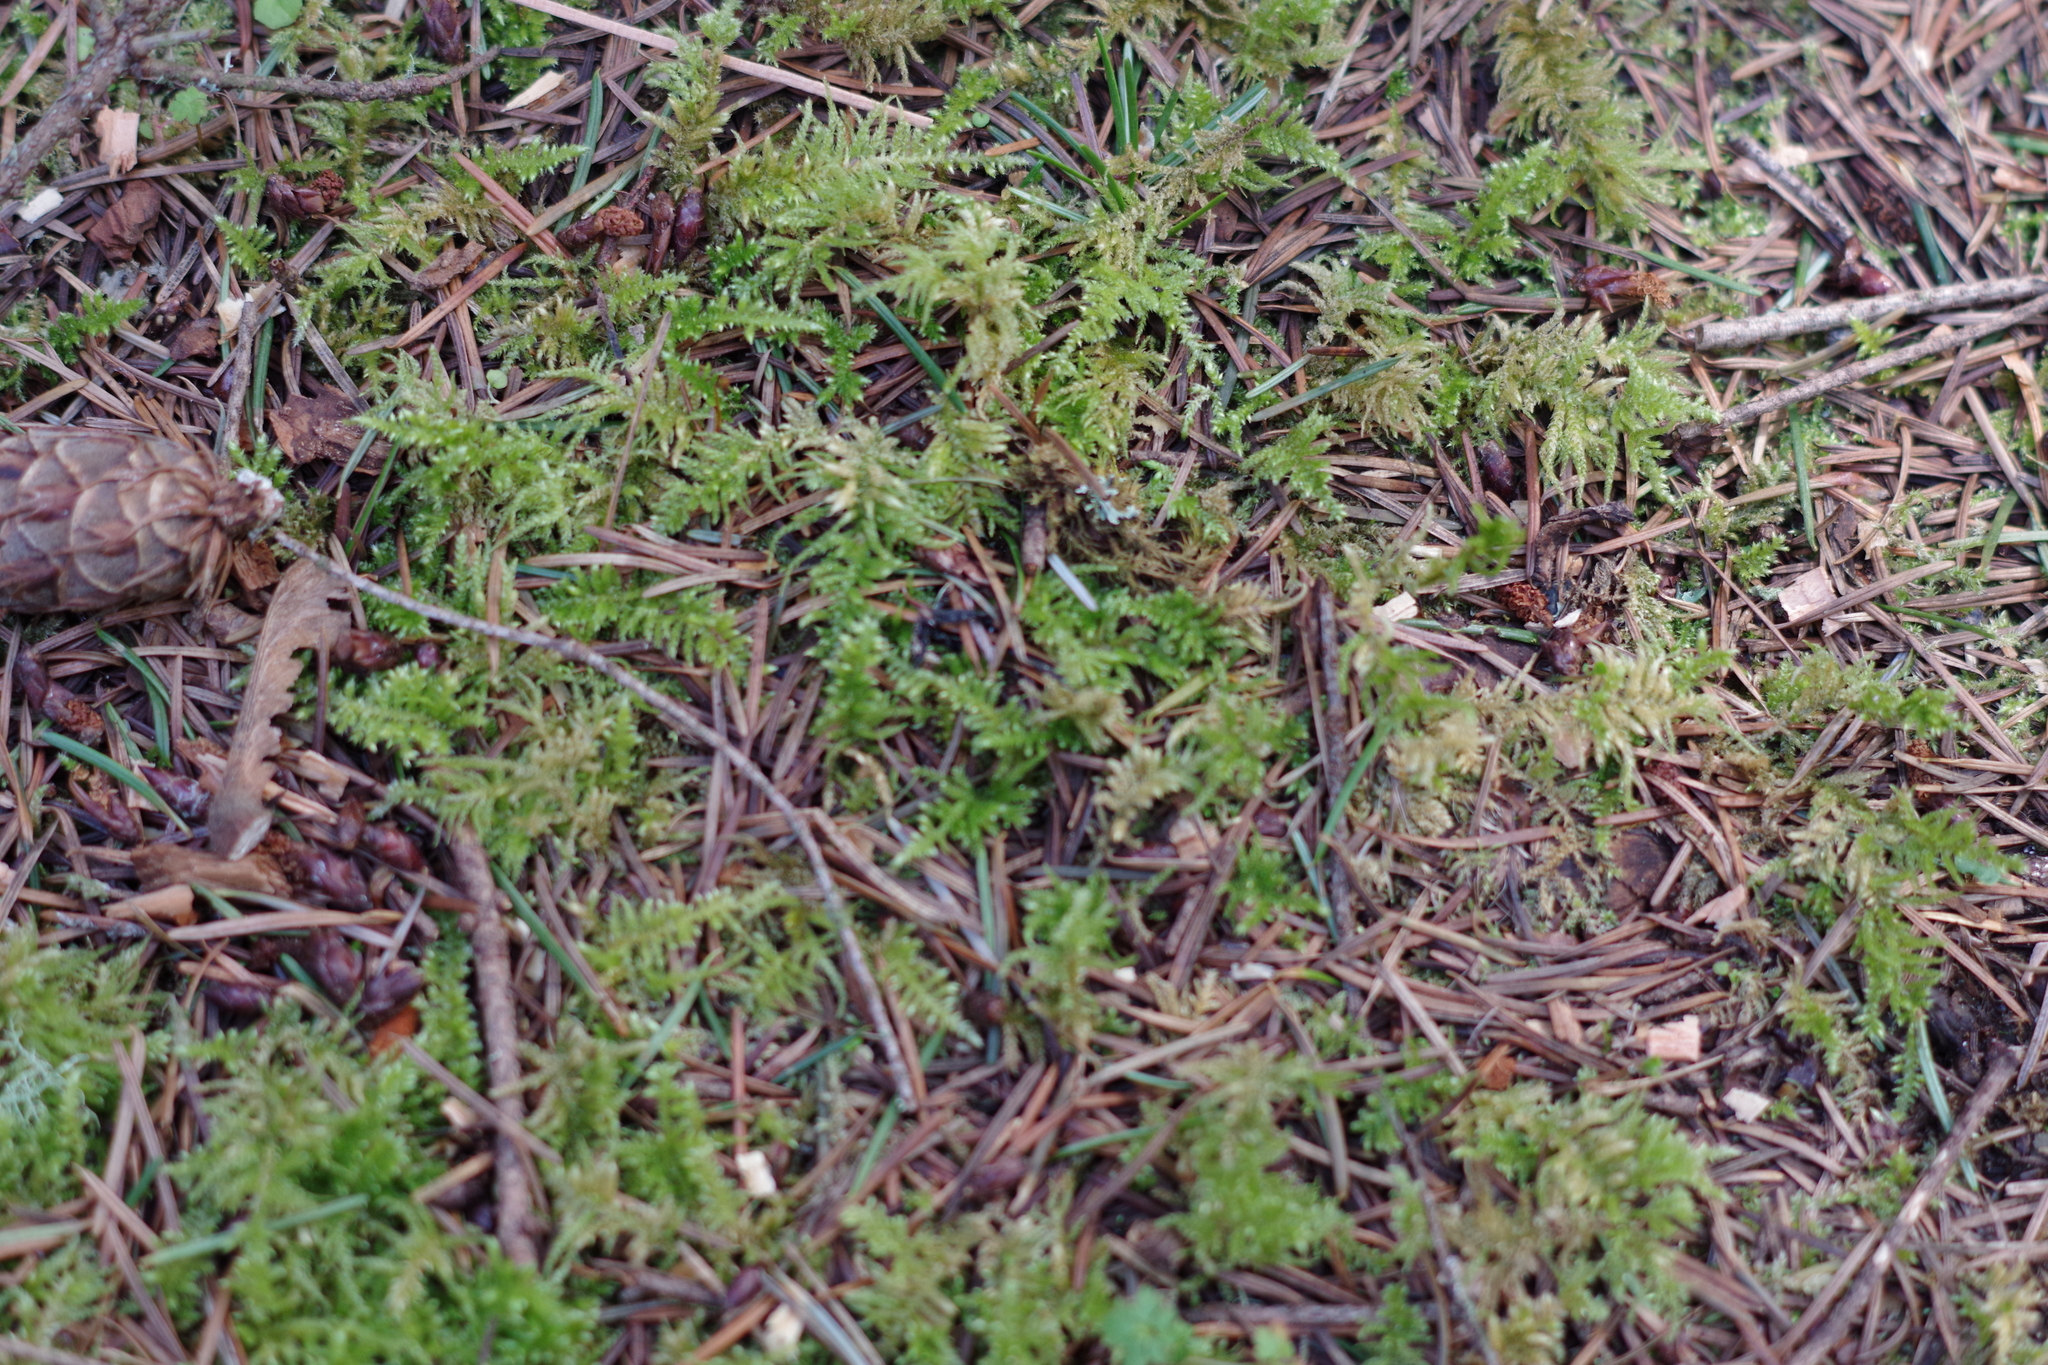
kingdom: Plantae
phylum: Bryophyta
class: Bryopsida
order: Hypnales
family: Brachytheciaceae
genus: Kindbergia
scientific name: Kindbergia oregana
